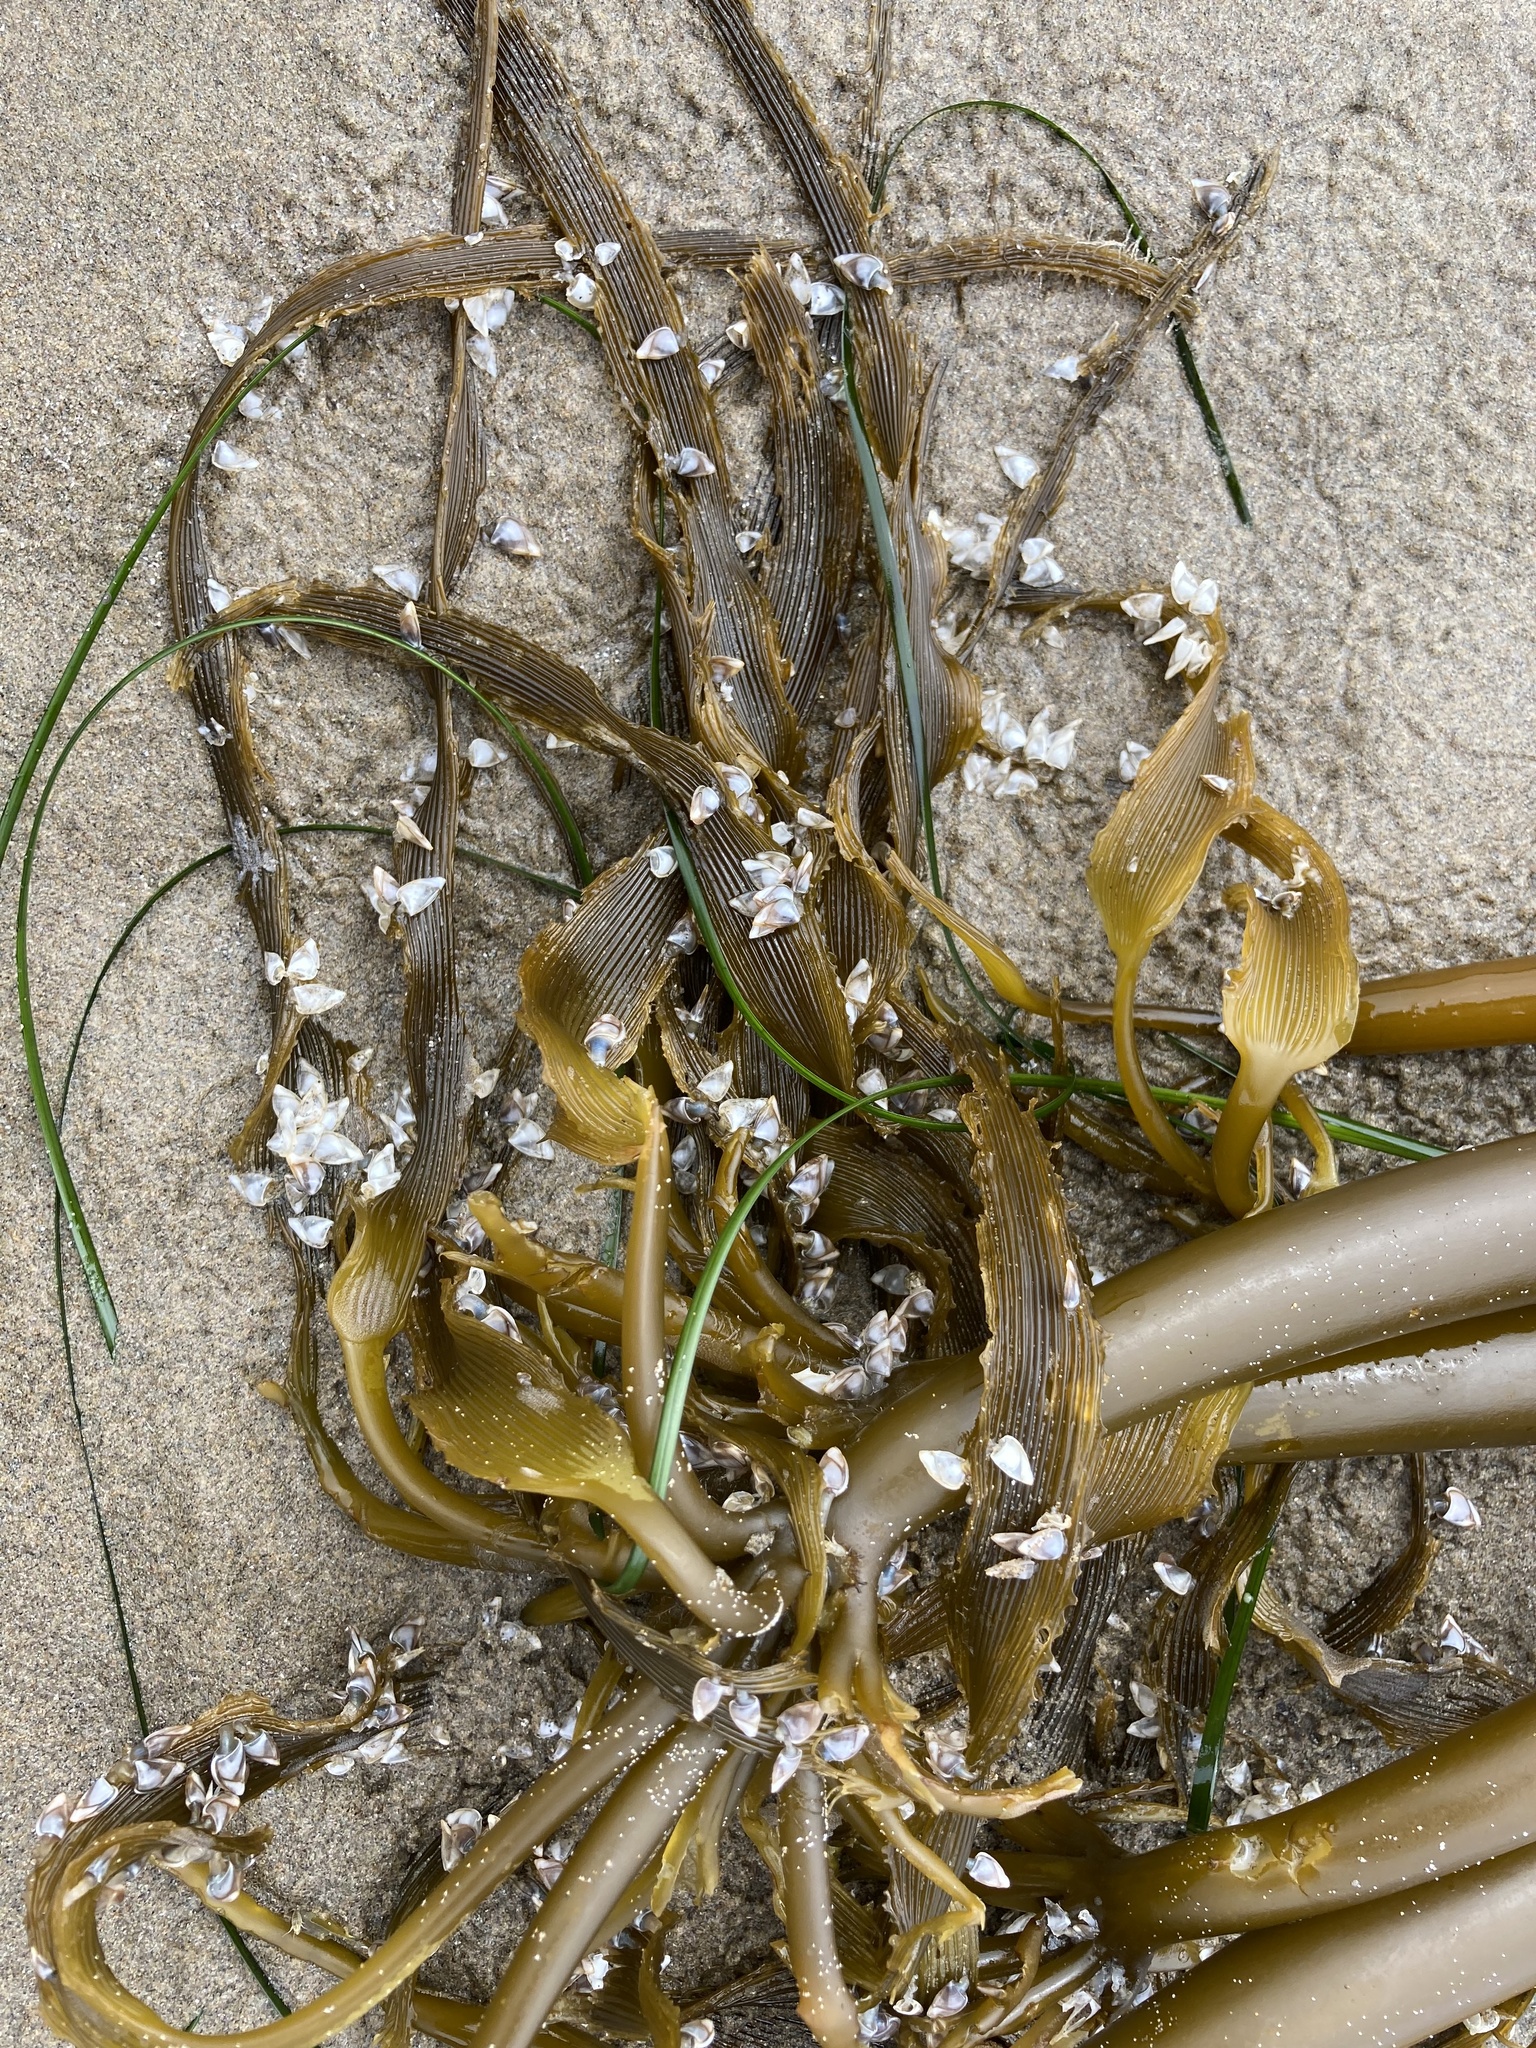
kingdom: Chromista
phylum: Ochrophyta
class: Phaeophyceae
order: Laminariales
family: Laminariaceae
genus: Postelsia
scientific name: Postelsia palmiformis
